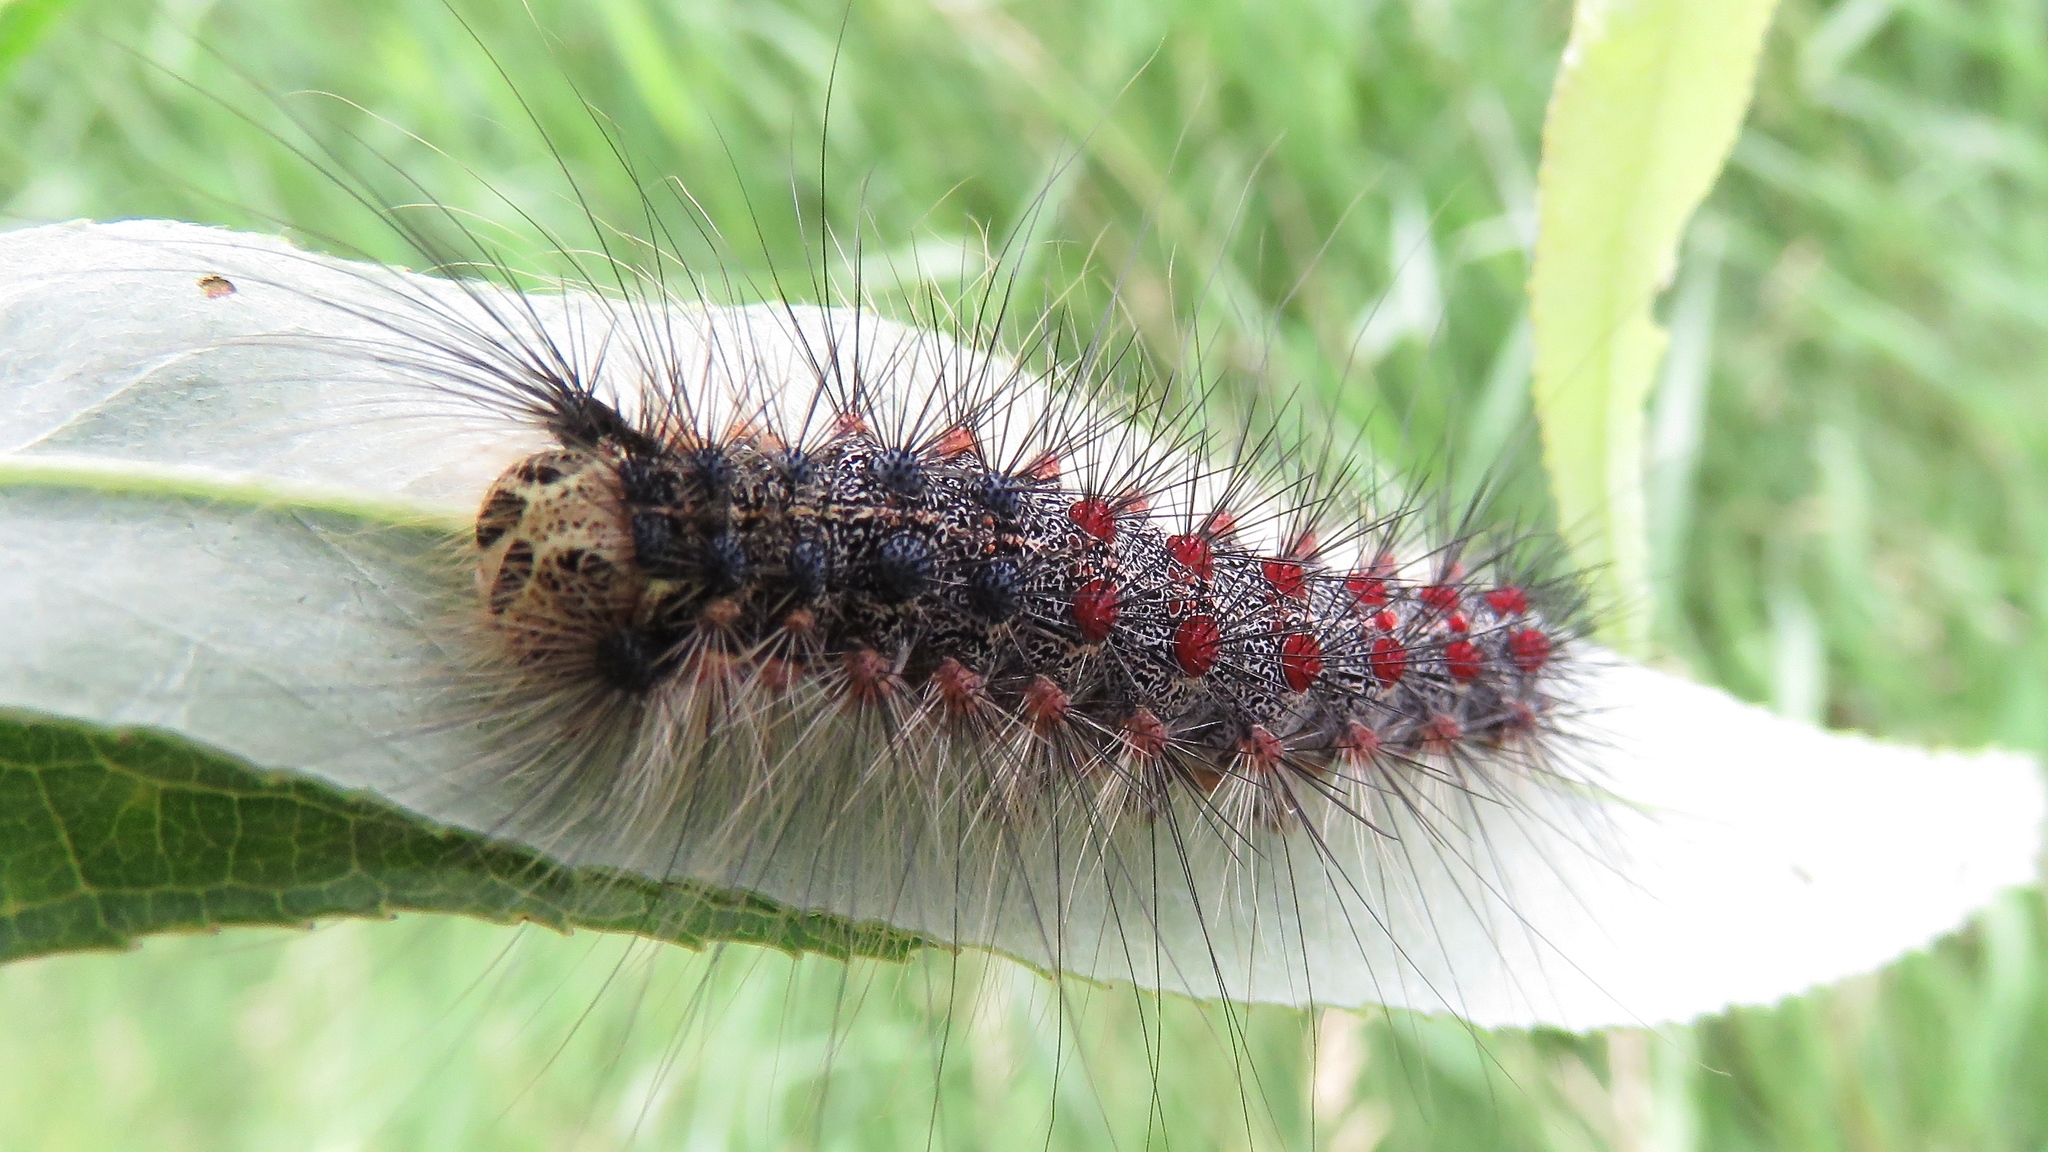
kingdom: Animalia
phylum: Arthropoda
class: Insecta
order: Lepidoptera
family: Erebidae
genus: Lymantria
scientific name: Lymantria dispar
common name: Gypsy moth
